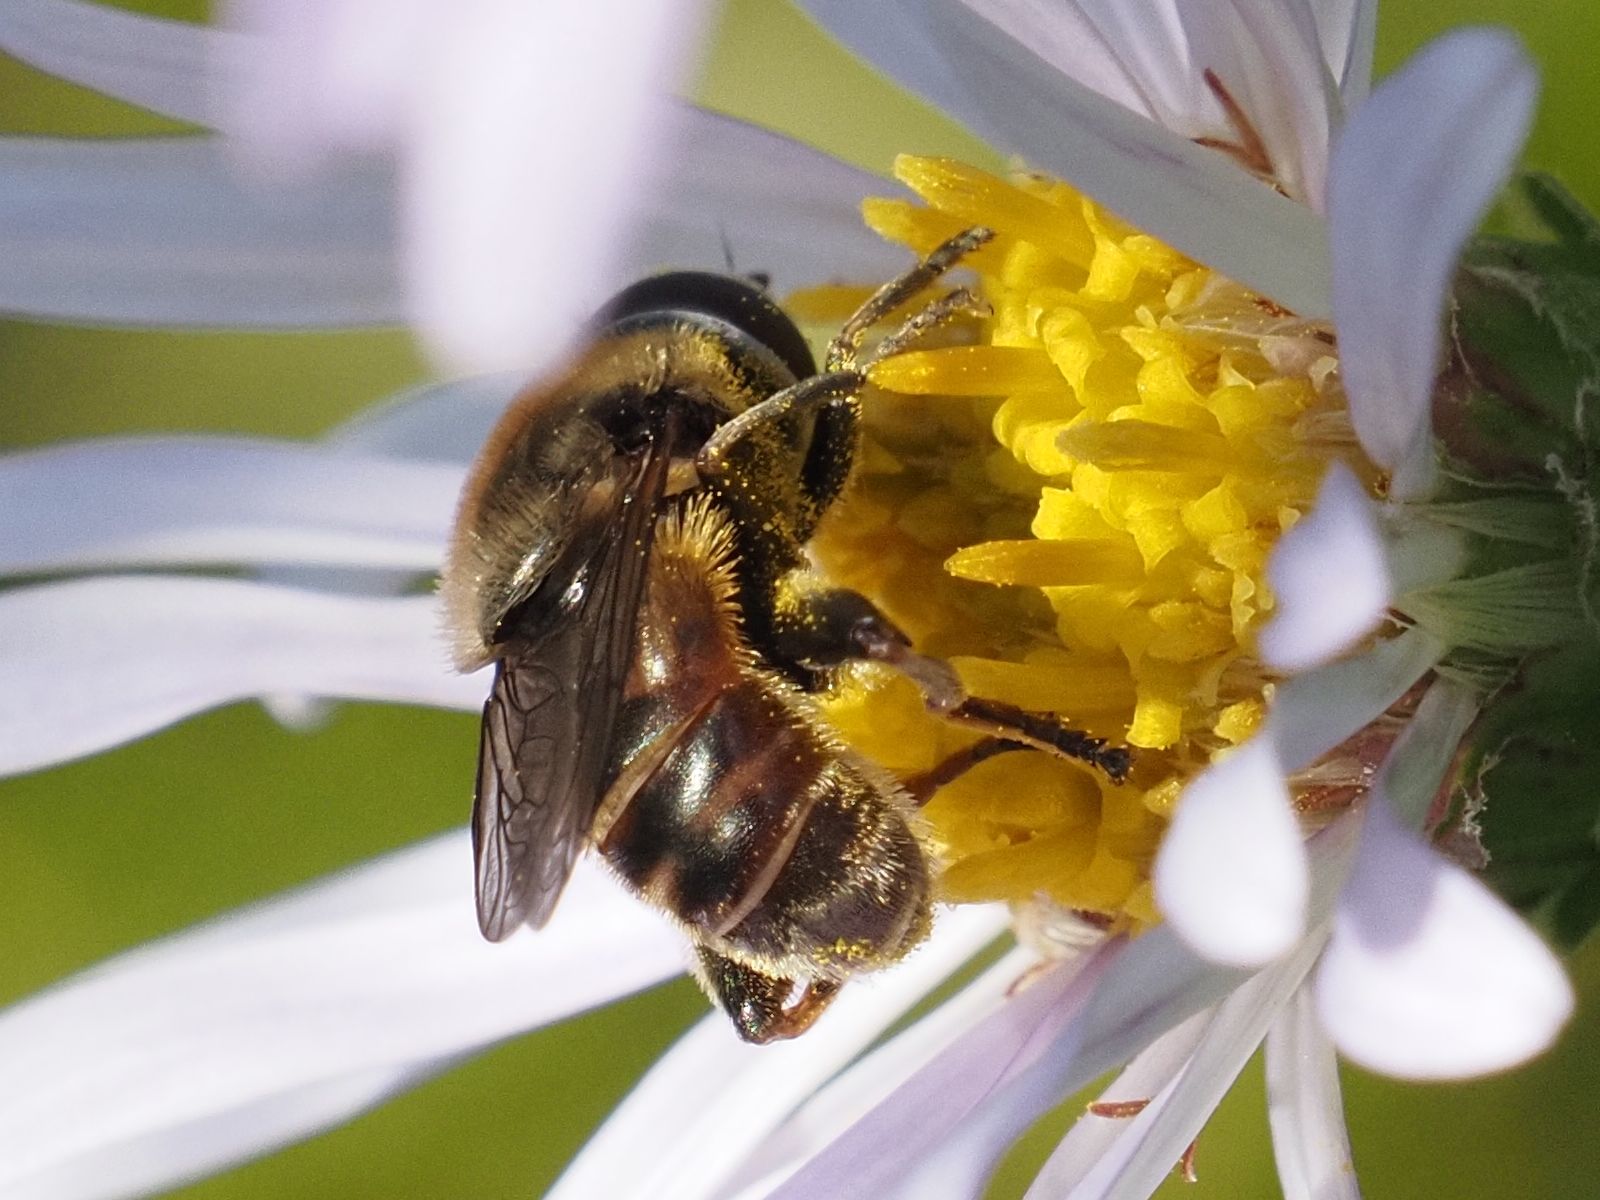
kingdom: Animalia
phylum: Arthropoda
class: Insecta
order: Diptera
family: Syrphidae
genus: Merodon
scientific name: Merodon constans
